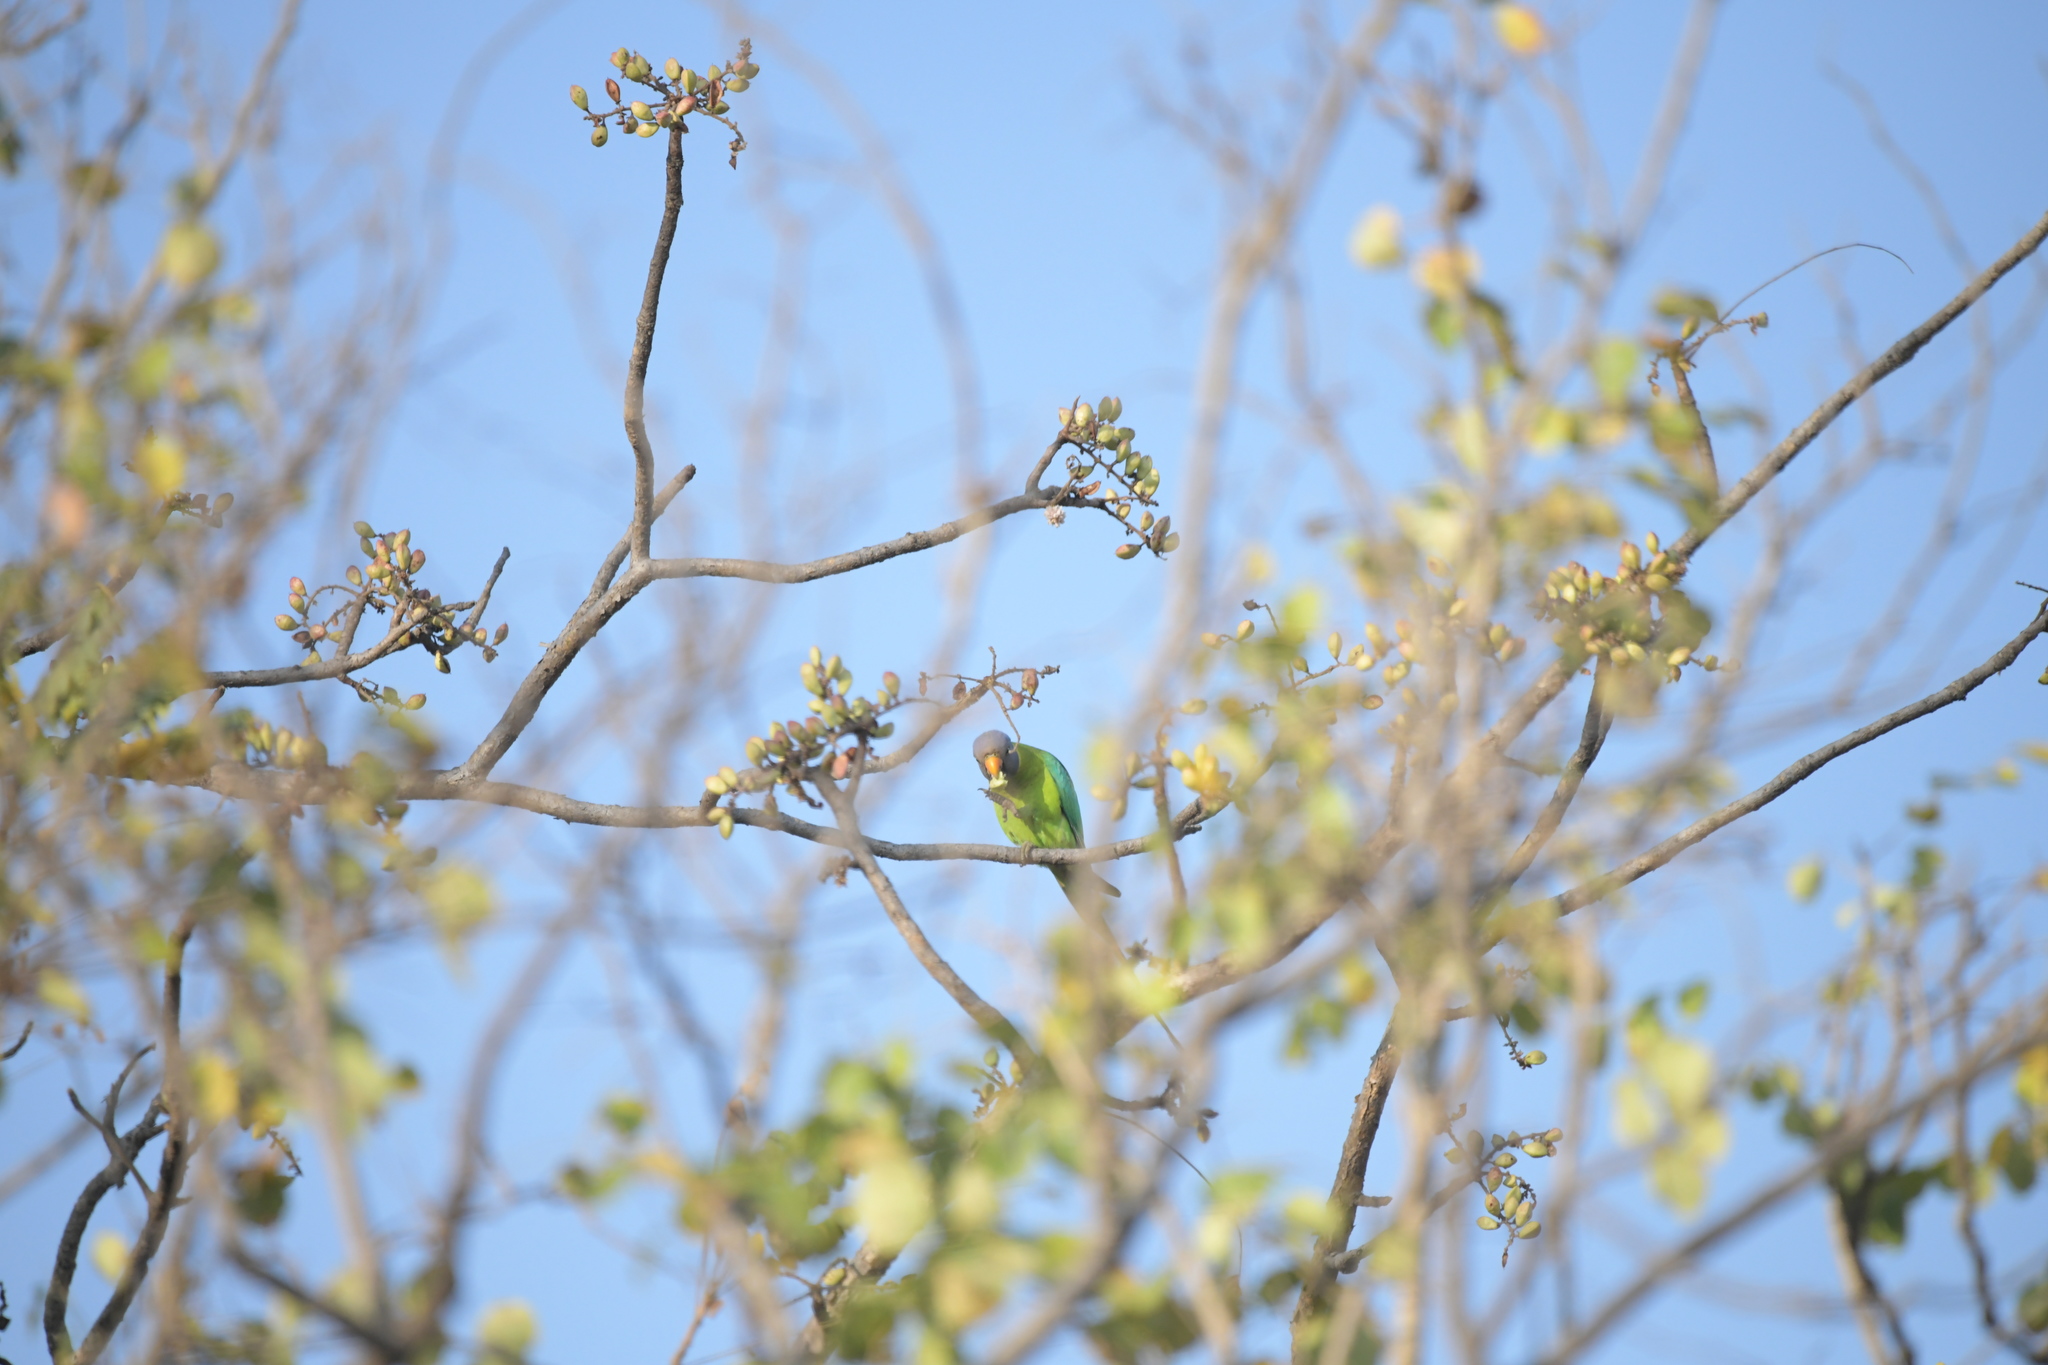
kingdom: Animalia
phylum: Chordata
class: Aves
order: Psittaciformes
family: Psittacidae
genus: Psittacula
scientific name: Psittacula cyanocephala
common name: Plum-headed parakeet
